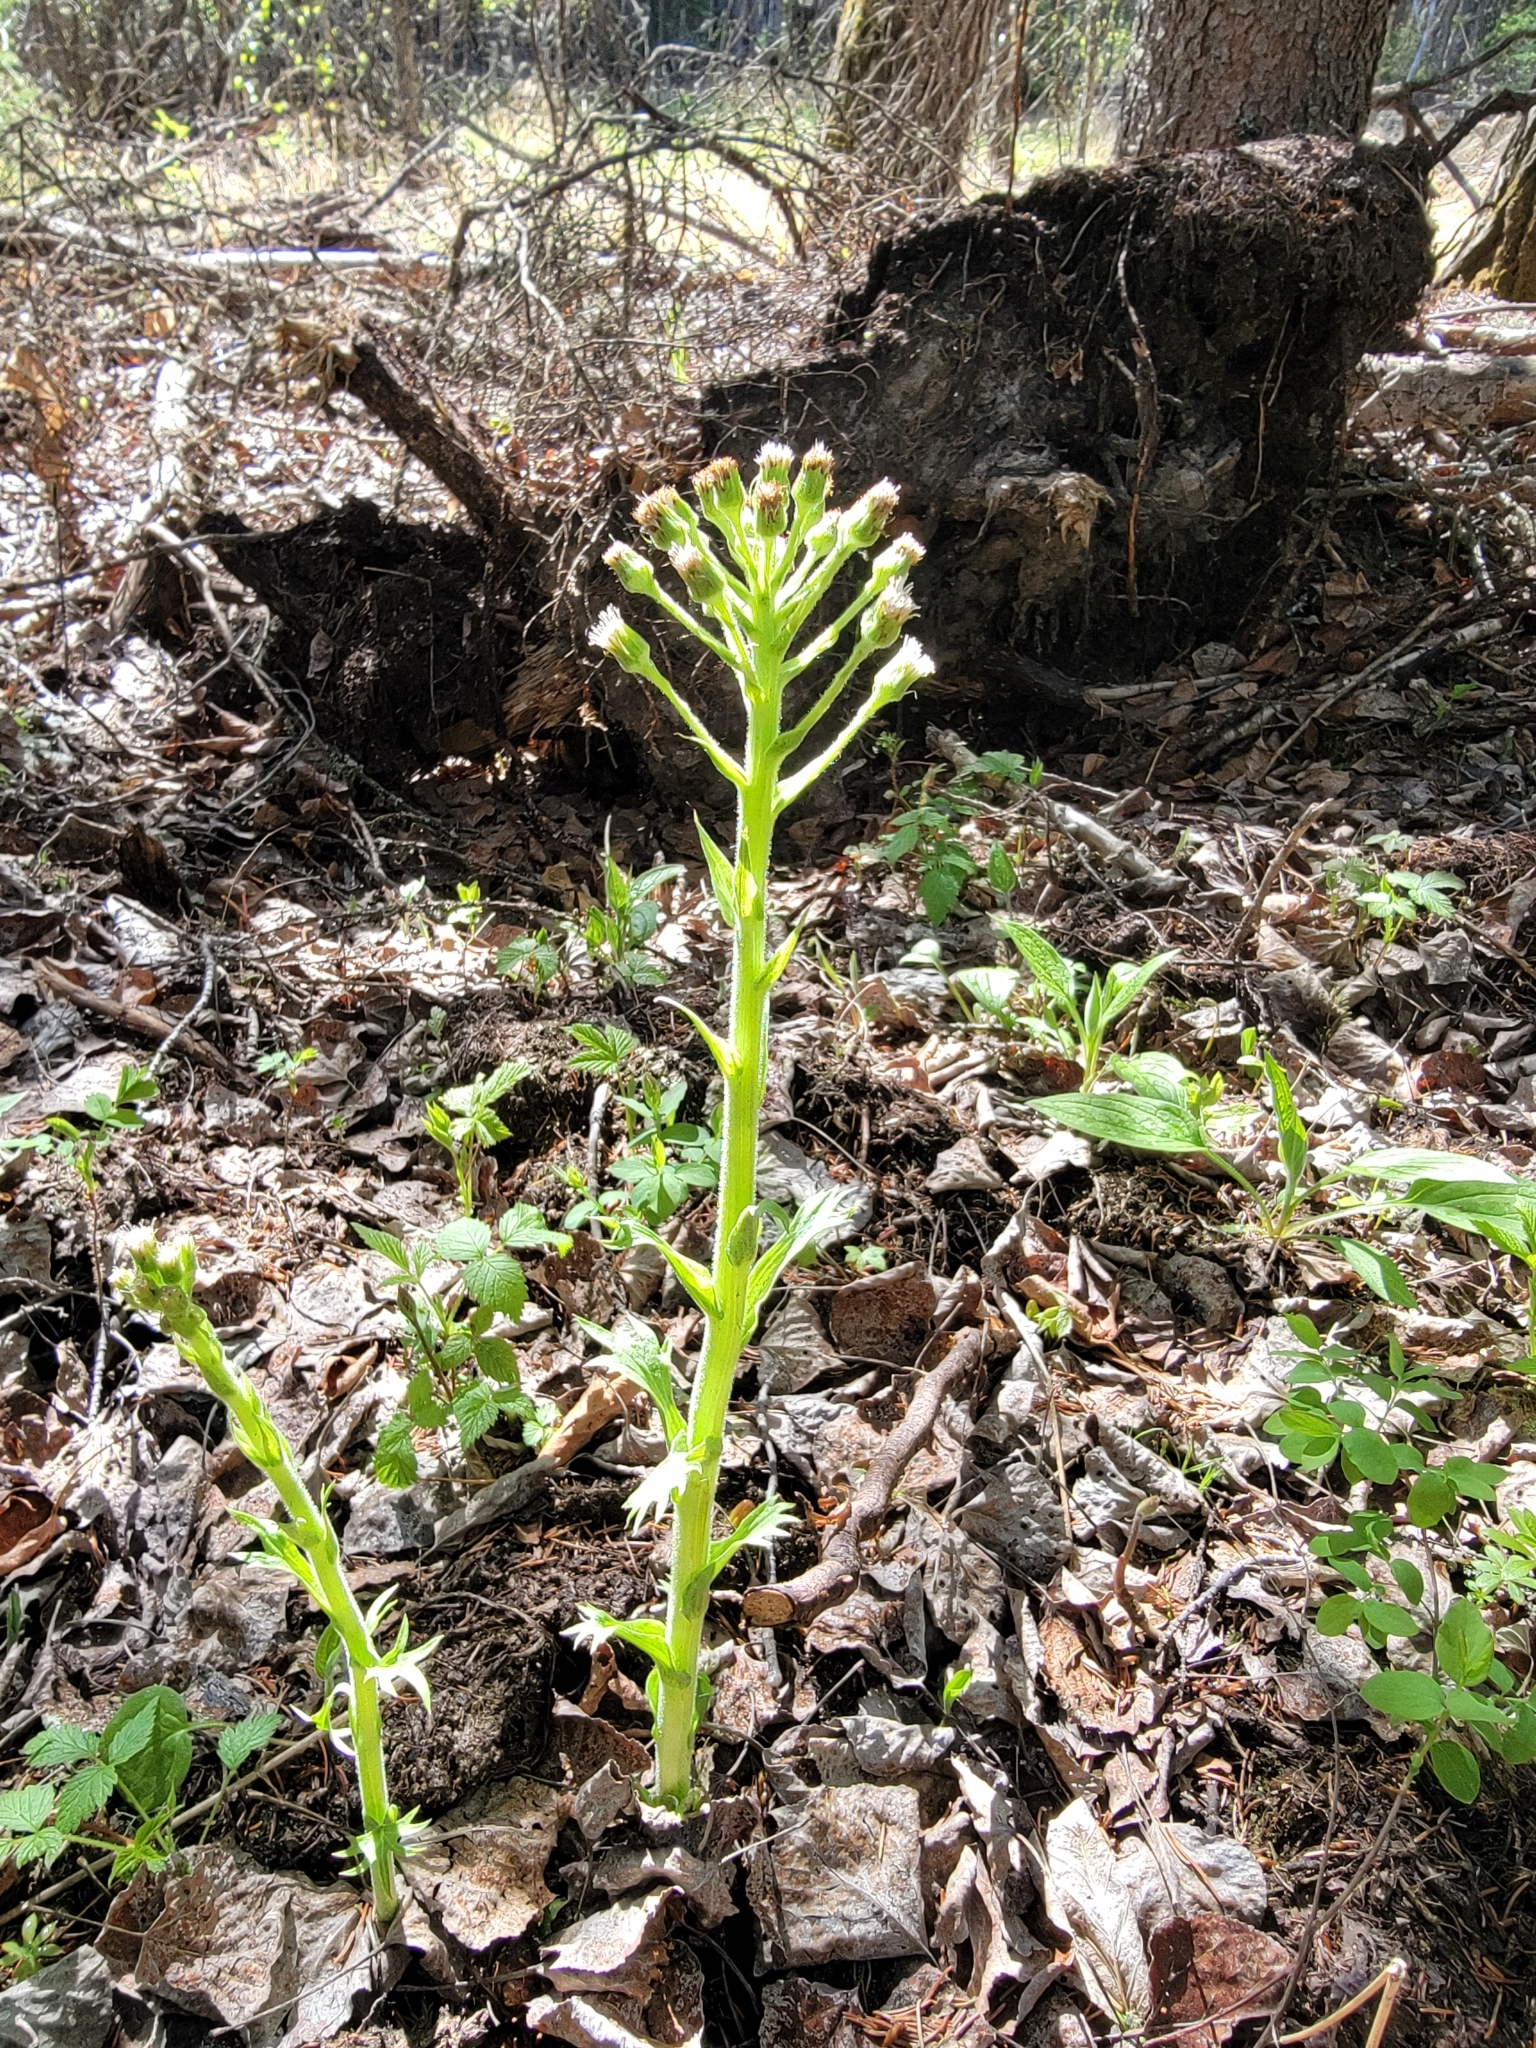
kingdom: Plantae
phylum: Tracheophyta
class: Magnoliopsida
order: Asterales
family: Asteraceae
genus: Petasites
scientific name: Petasites frigidus
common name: Arctic butterbur
